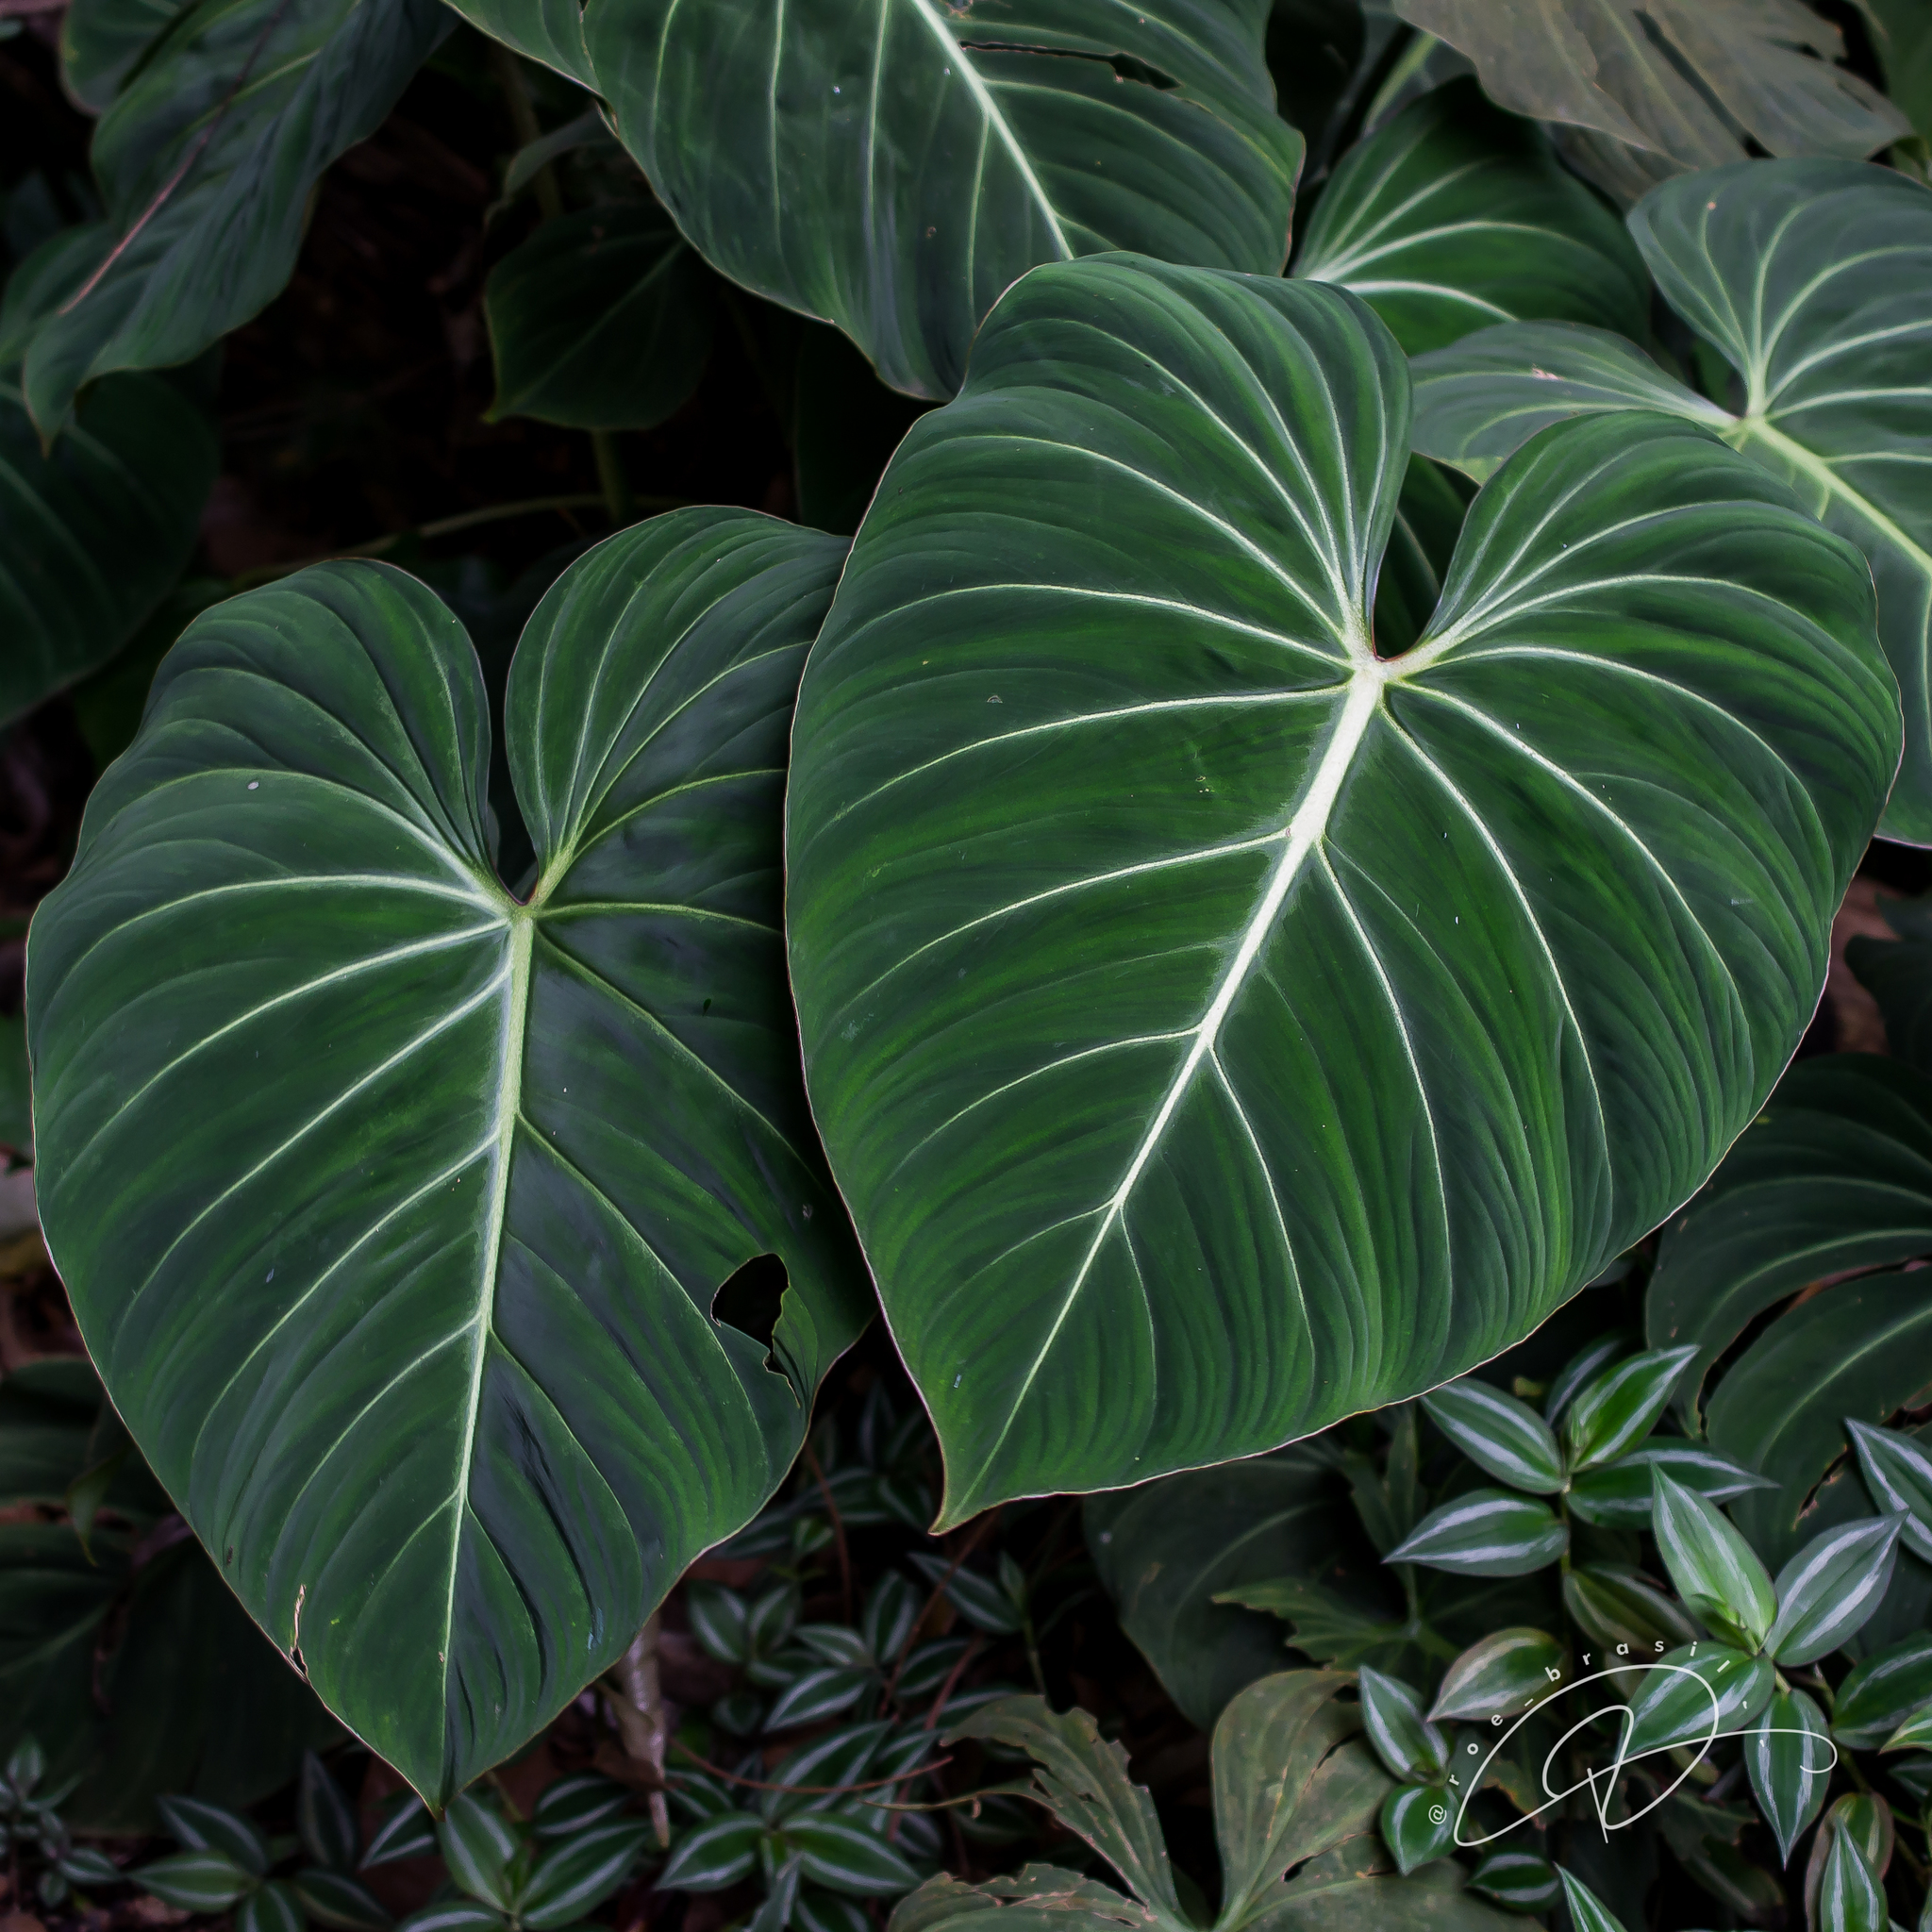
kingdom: Plantae
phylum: Tracheophyta
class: Liliopsida
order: Alismatales
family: Araceae
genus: Philodendron
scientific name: Philodendron gloriosum
